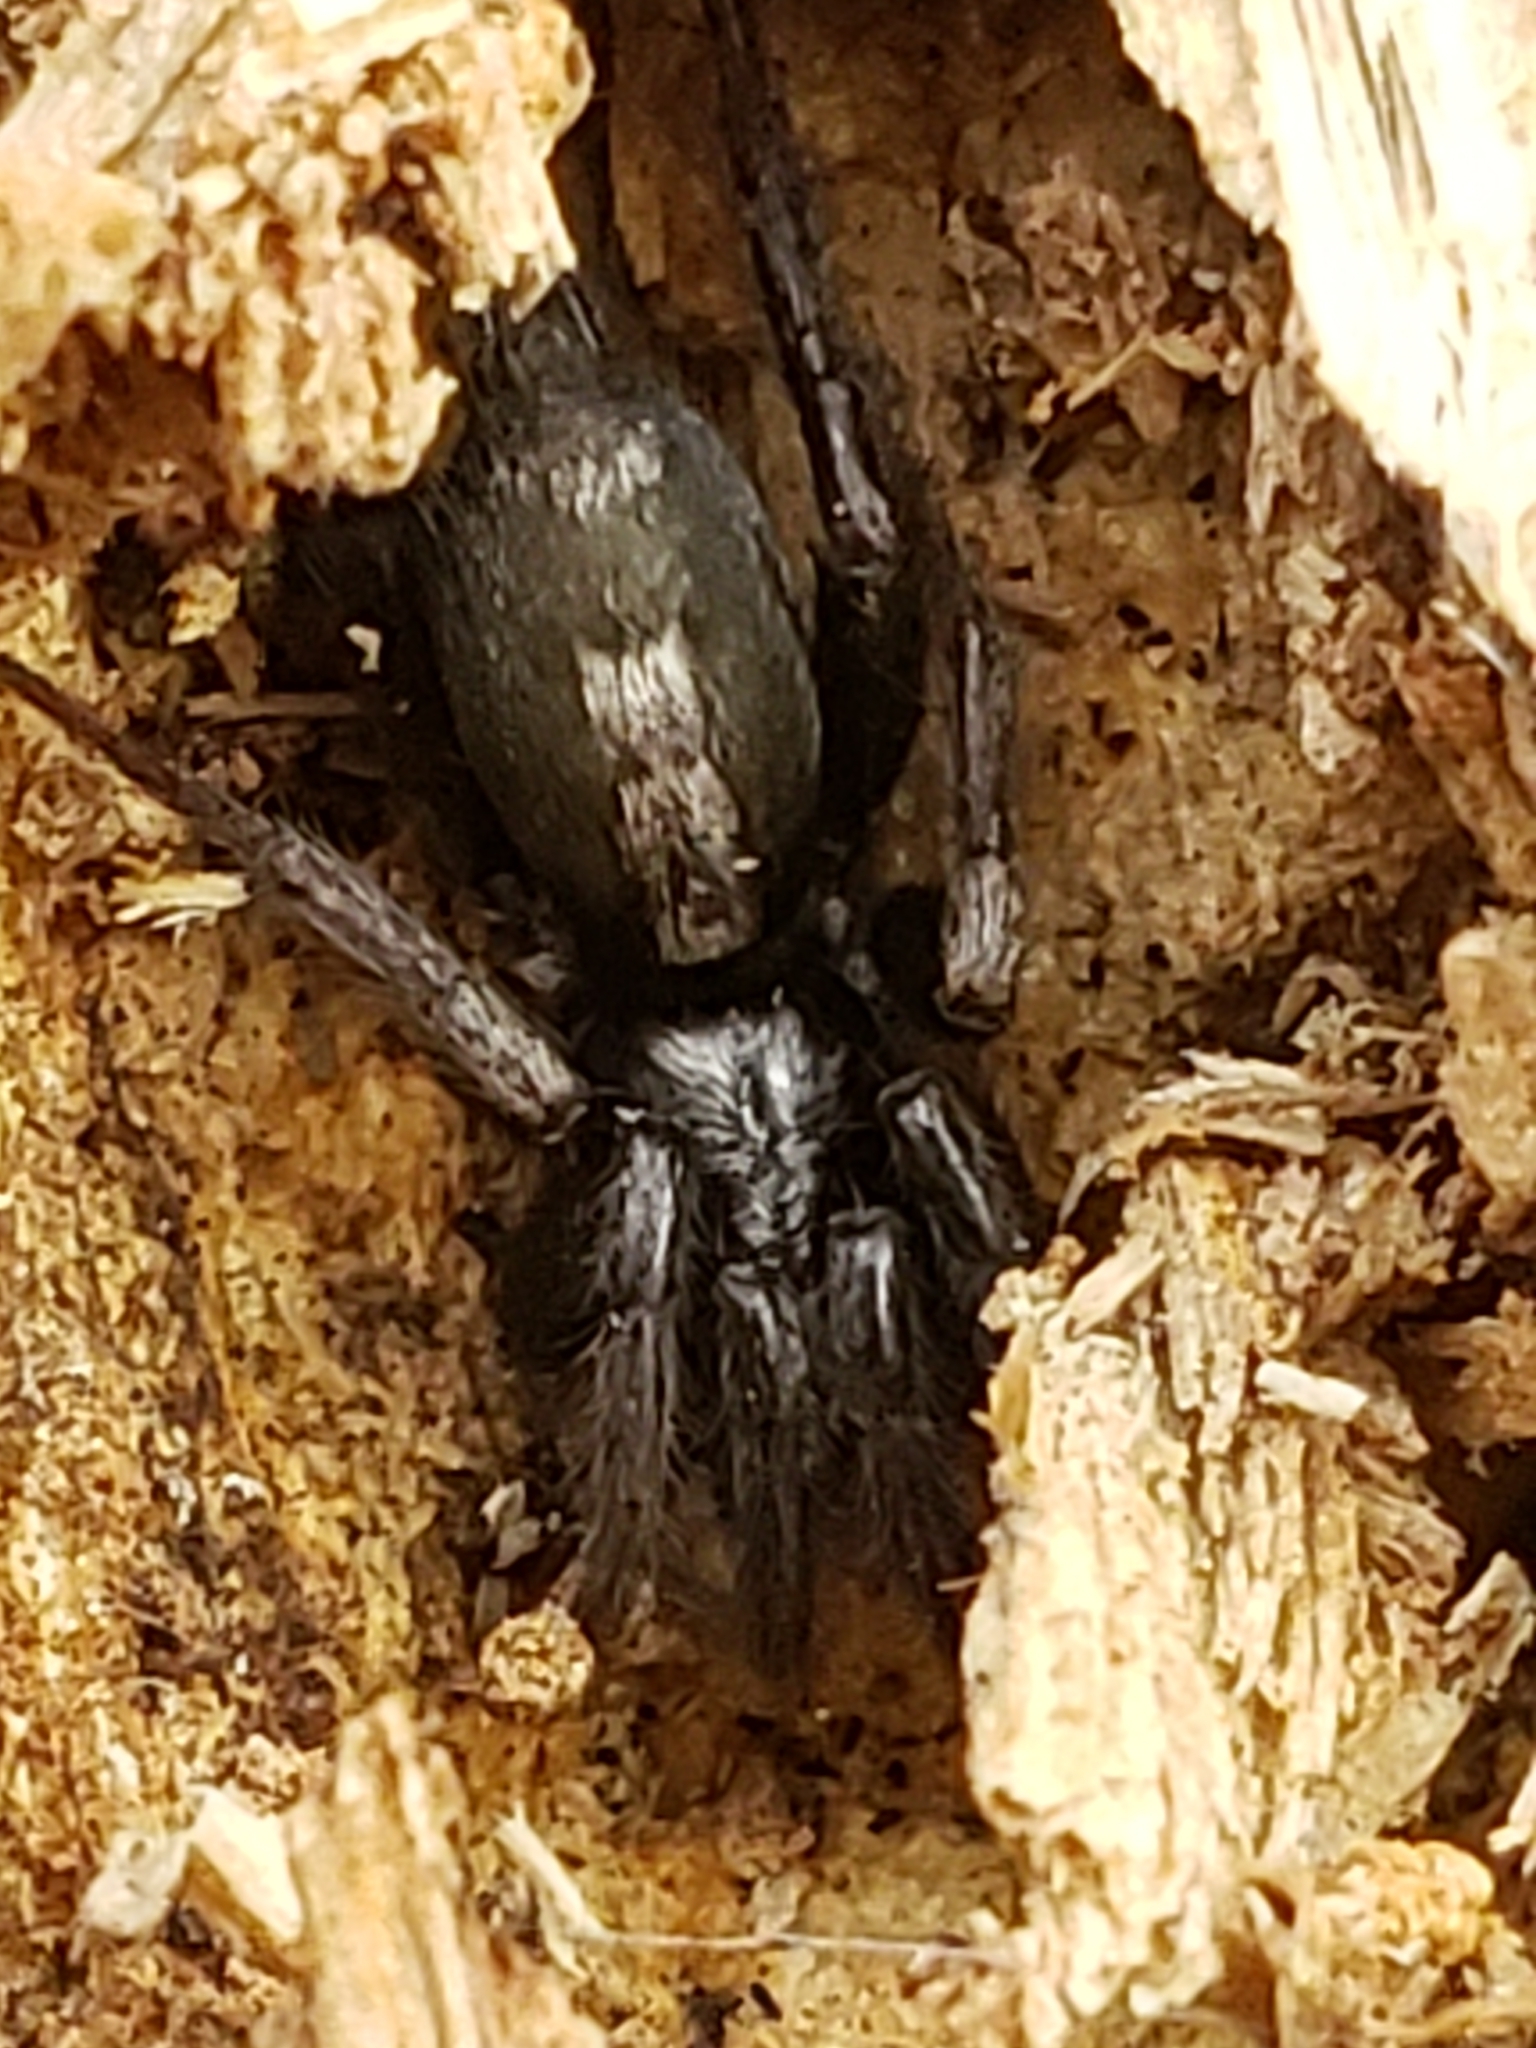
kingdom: Animalia
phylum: Arthropoda
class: Arachnida
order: Araneae
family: Gnaphosidae
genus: Herpyllus
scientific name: Herpyllus ecclesiasticus
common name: Eastern parson spider
